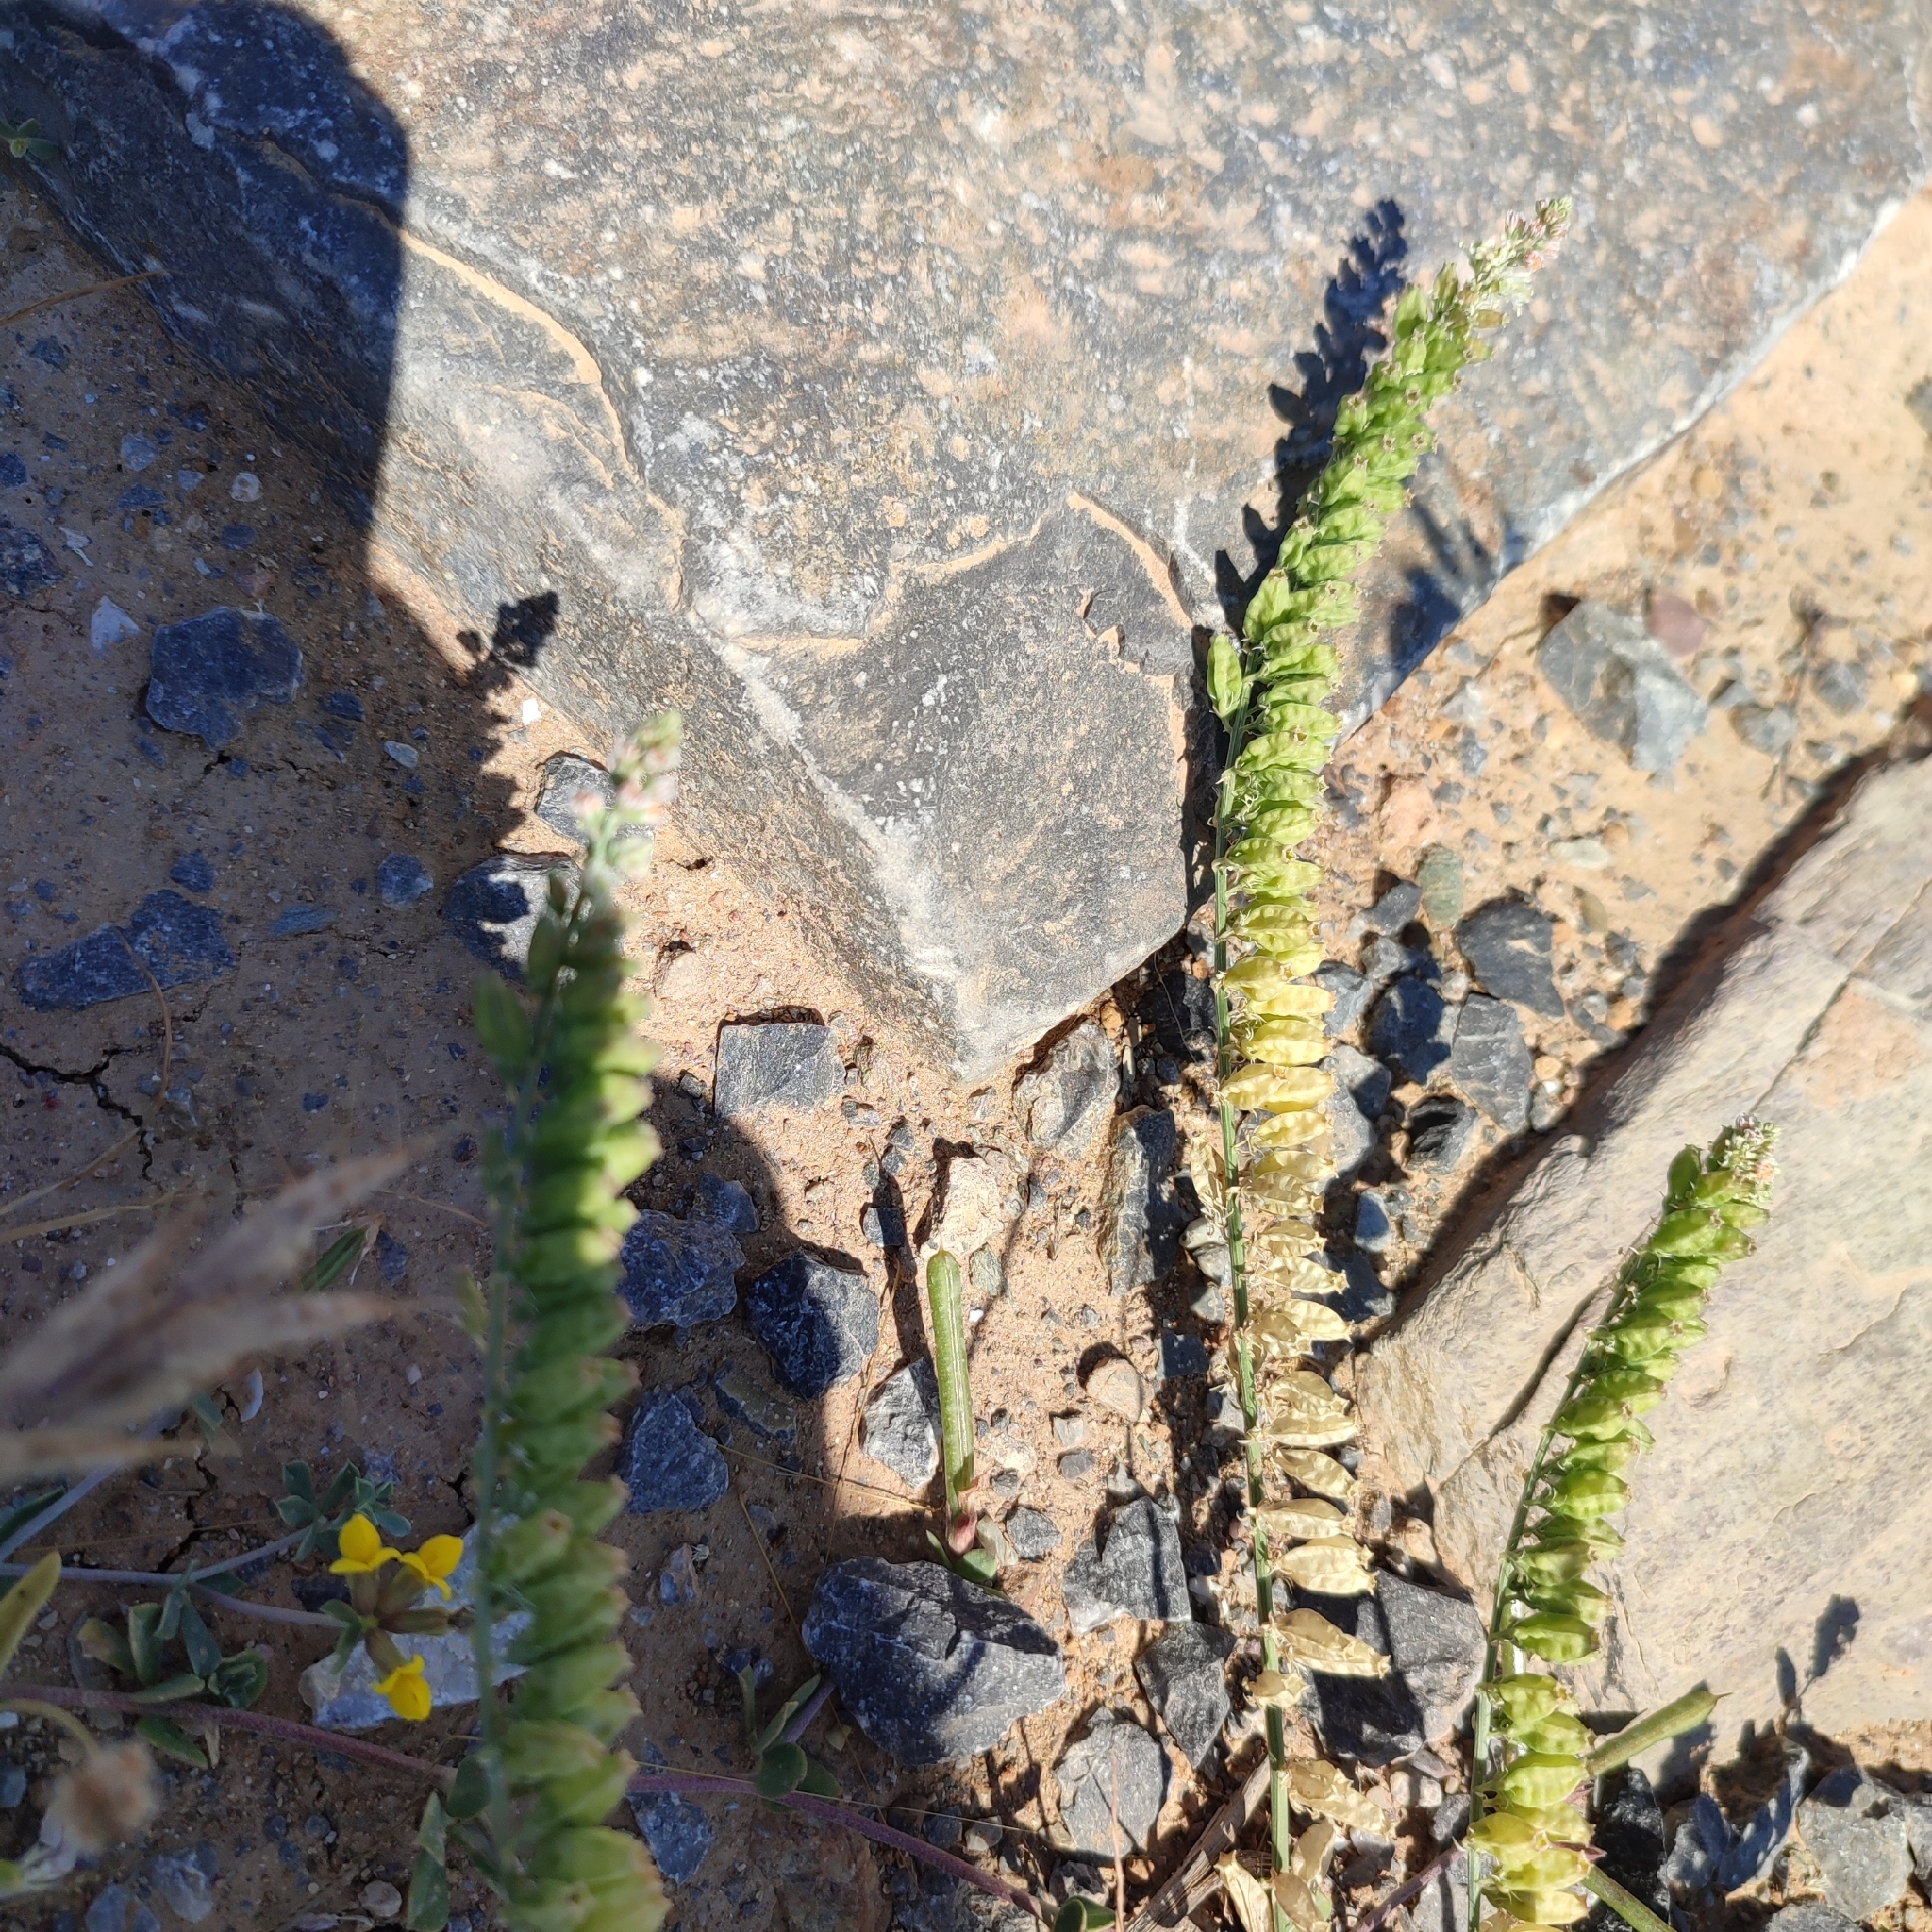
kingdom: Plantae
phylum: Tracheophyta
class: Magnoliopsida
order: Brassicales
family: Resedaceae
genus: Reseda
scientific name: Reseda alba
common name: White mignonette
